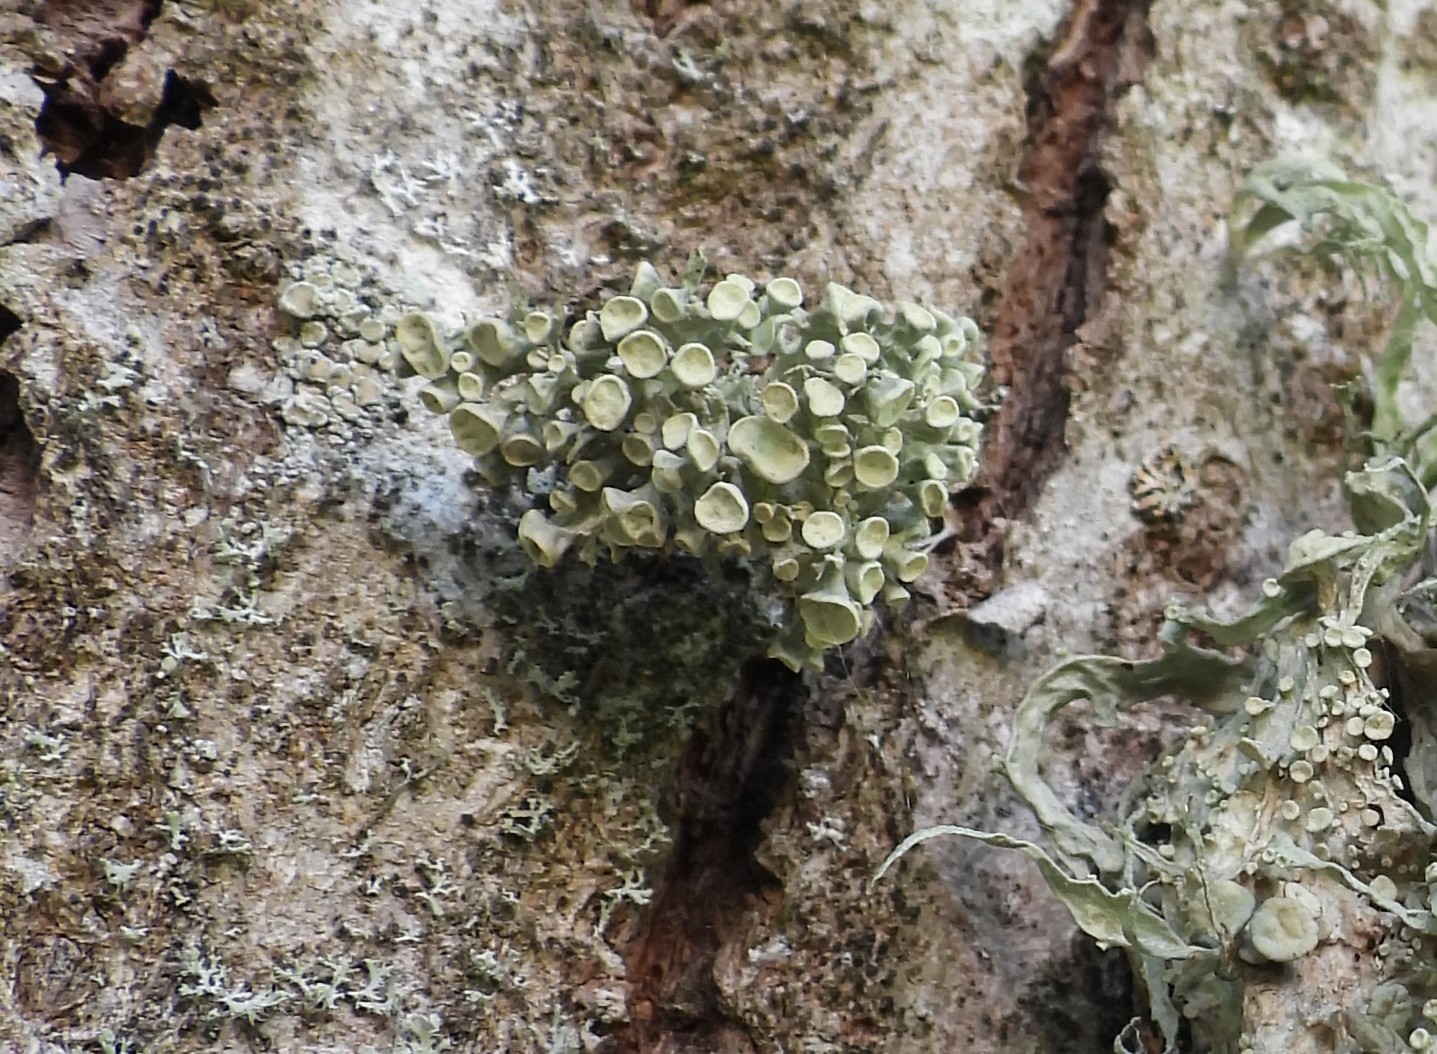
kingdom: Fungi
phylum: Ascomycota
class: Lecanoromycetes
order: Lecanorales
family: Ramalinaceae
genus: Ramalina
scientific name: Ramalina fastigiata
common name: Dotted ribbon lichen
